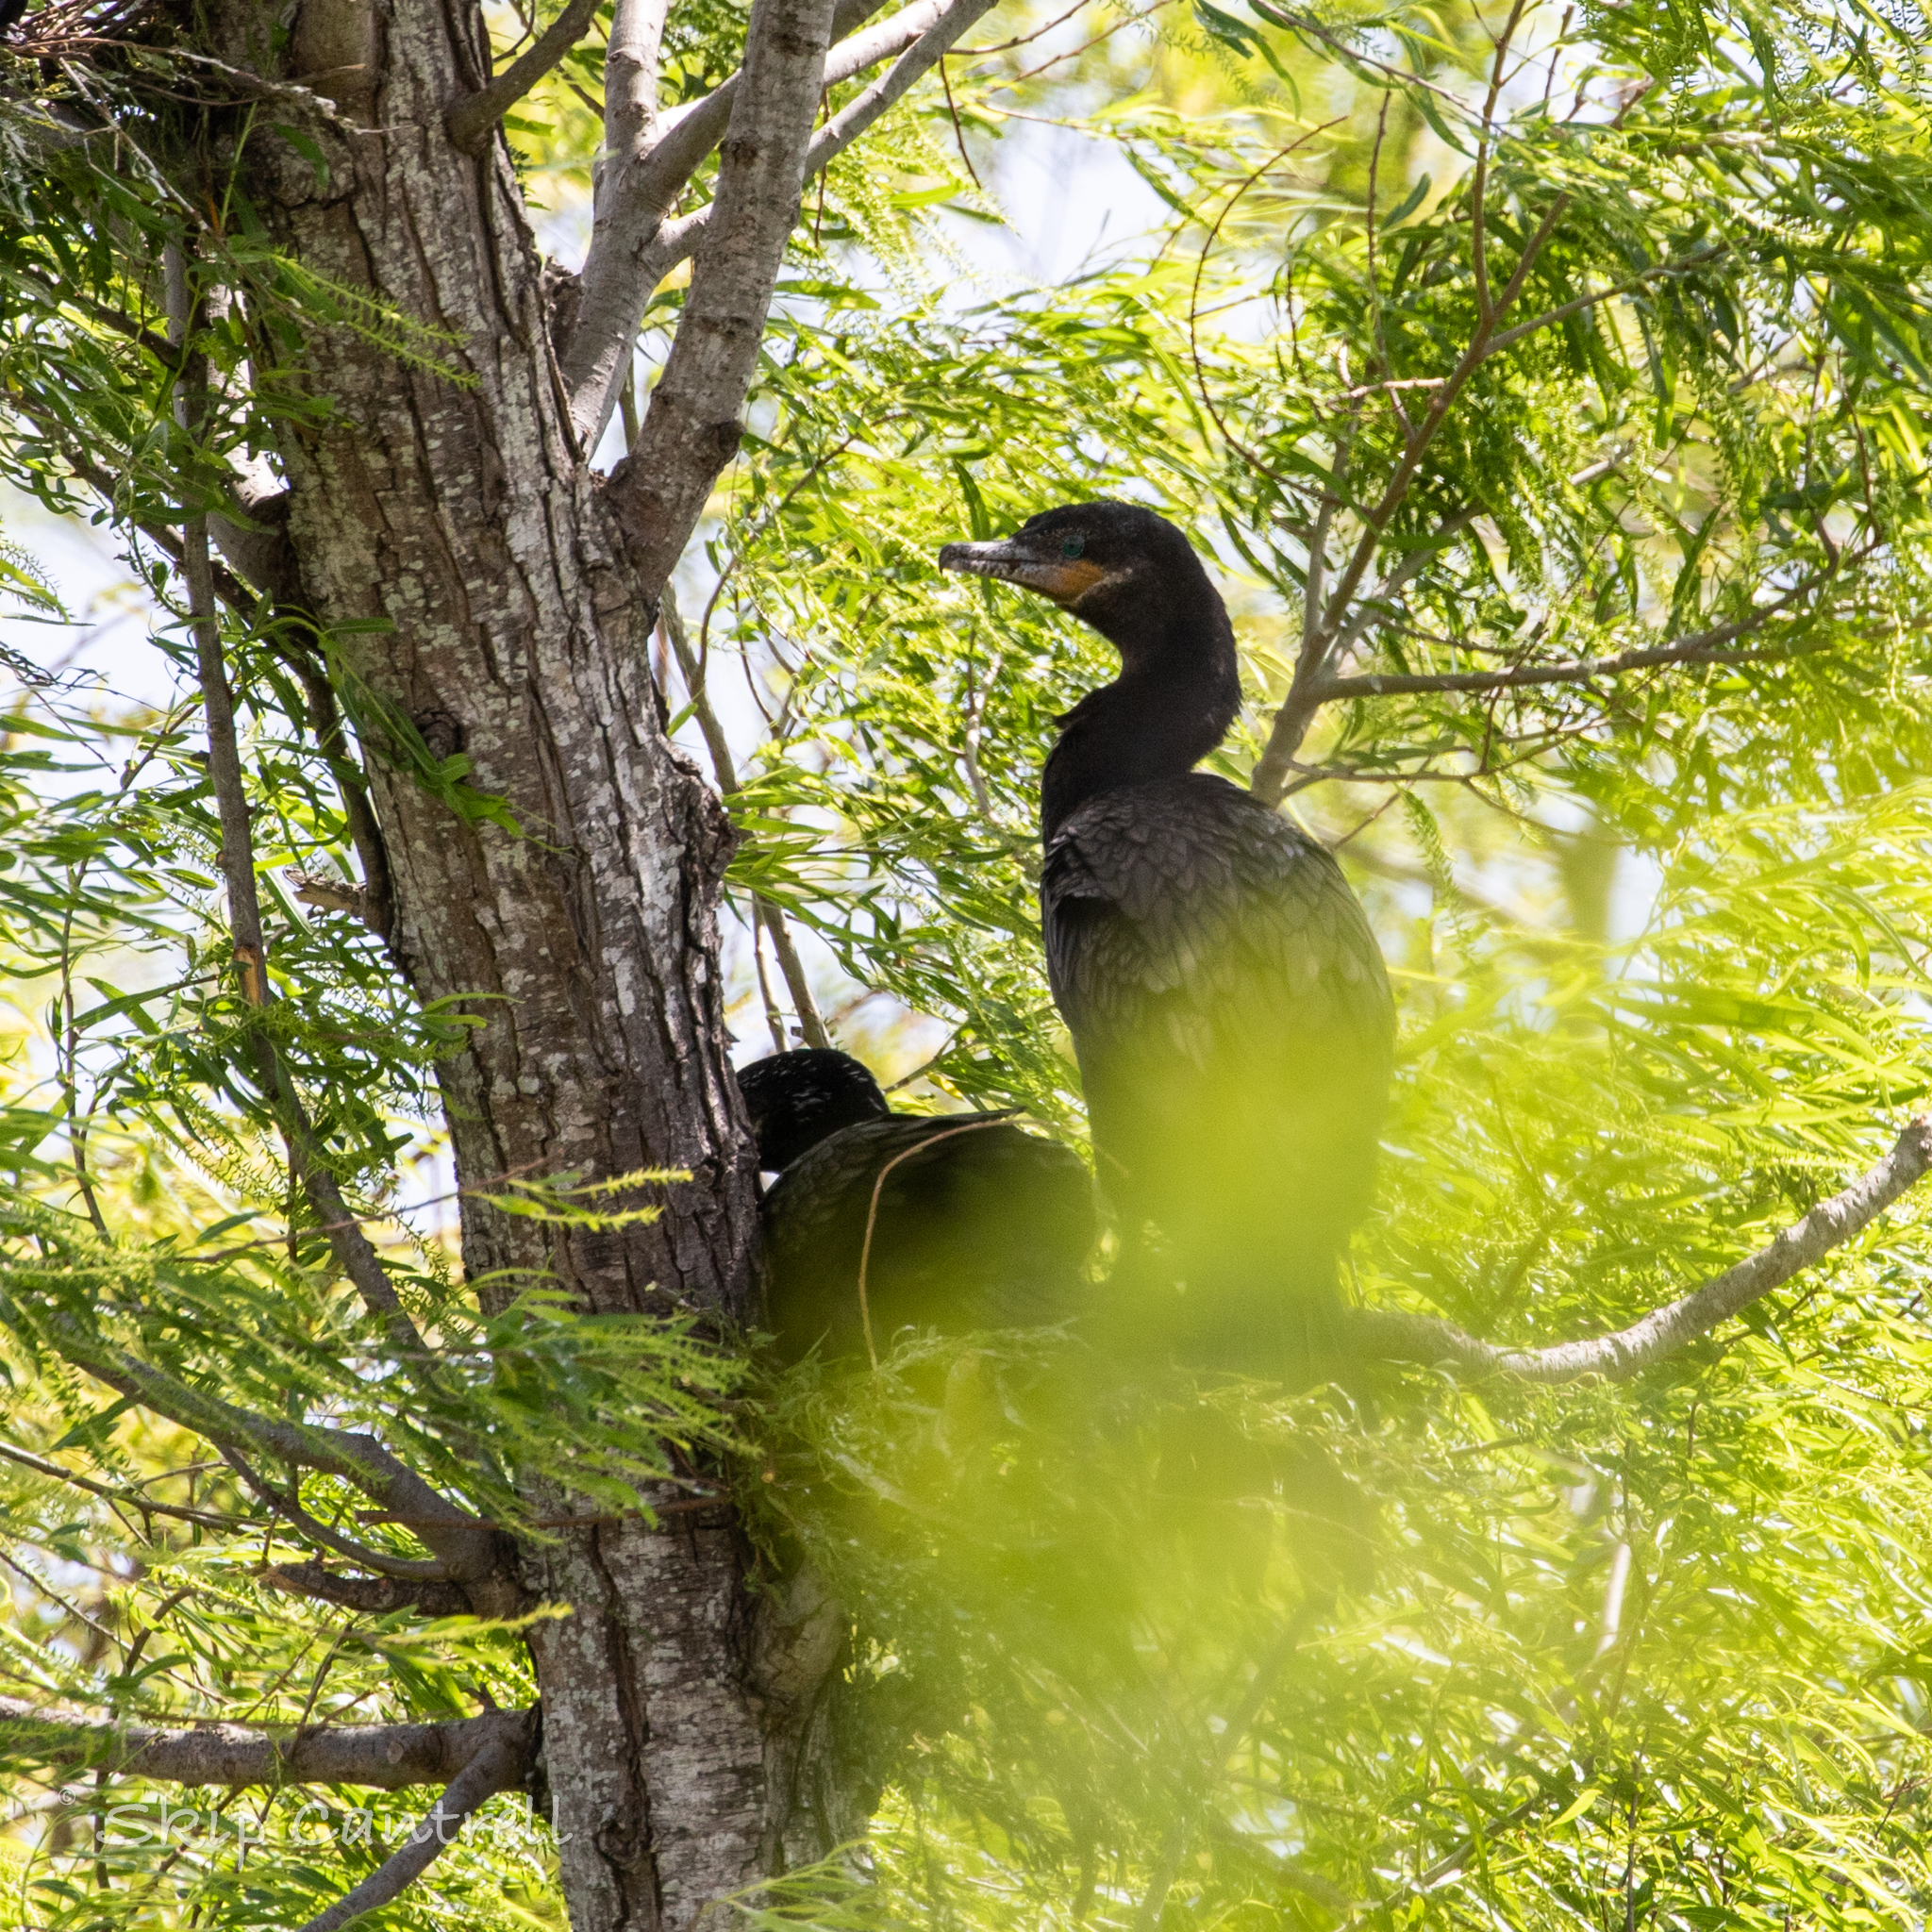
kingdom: Animalia
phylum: Chordata
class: Aves
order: Suliformes
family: Phalacrocoracidae
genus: Phalacrocorax
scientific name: Phalacrocorax brasilianus
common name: Neotropic cormorant
